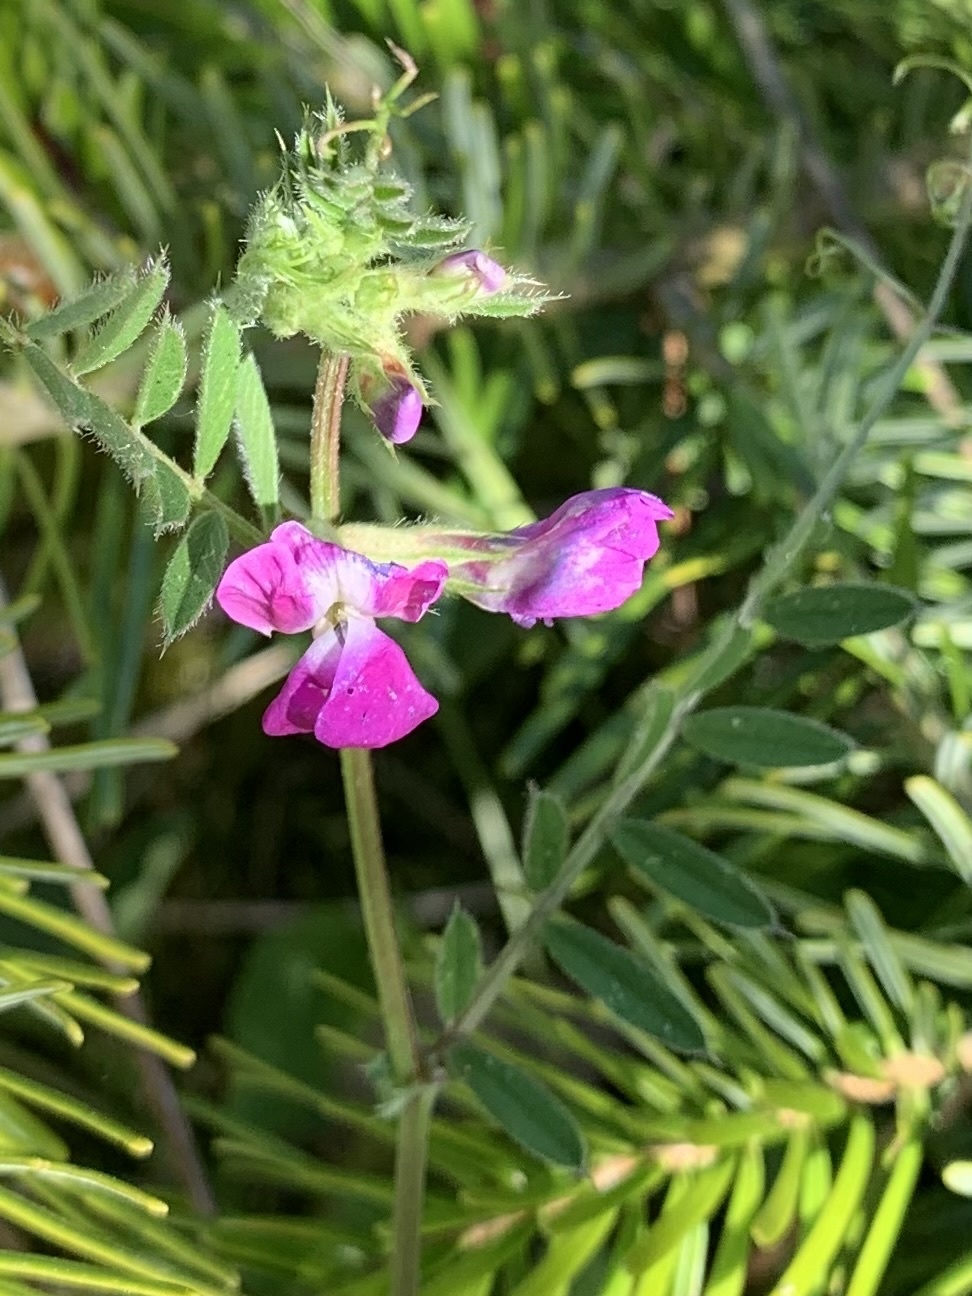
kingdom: Plantae
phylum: Tracheophyta
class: Magnoliopsida
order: Fabales
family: Fabaceae
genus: Vicia
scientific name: Vicia sativa
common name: Garden vetch
